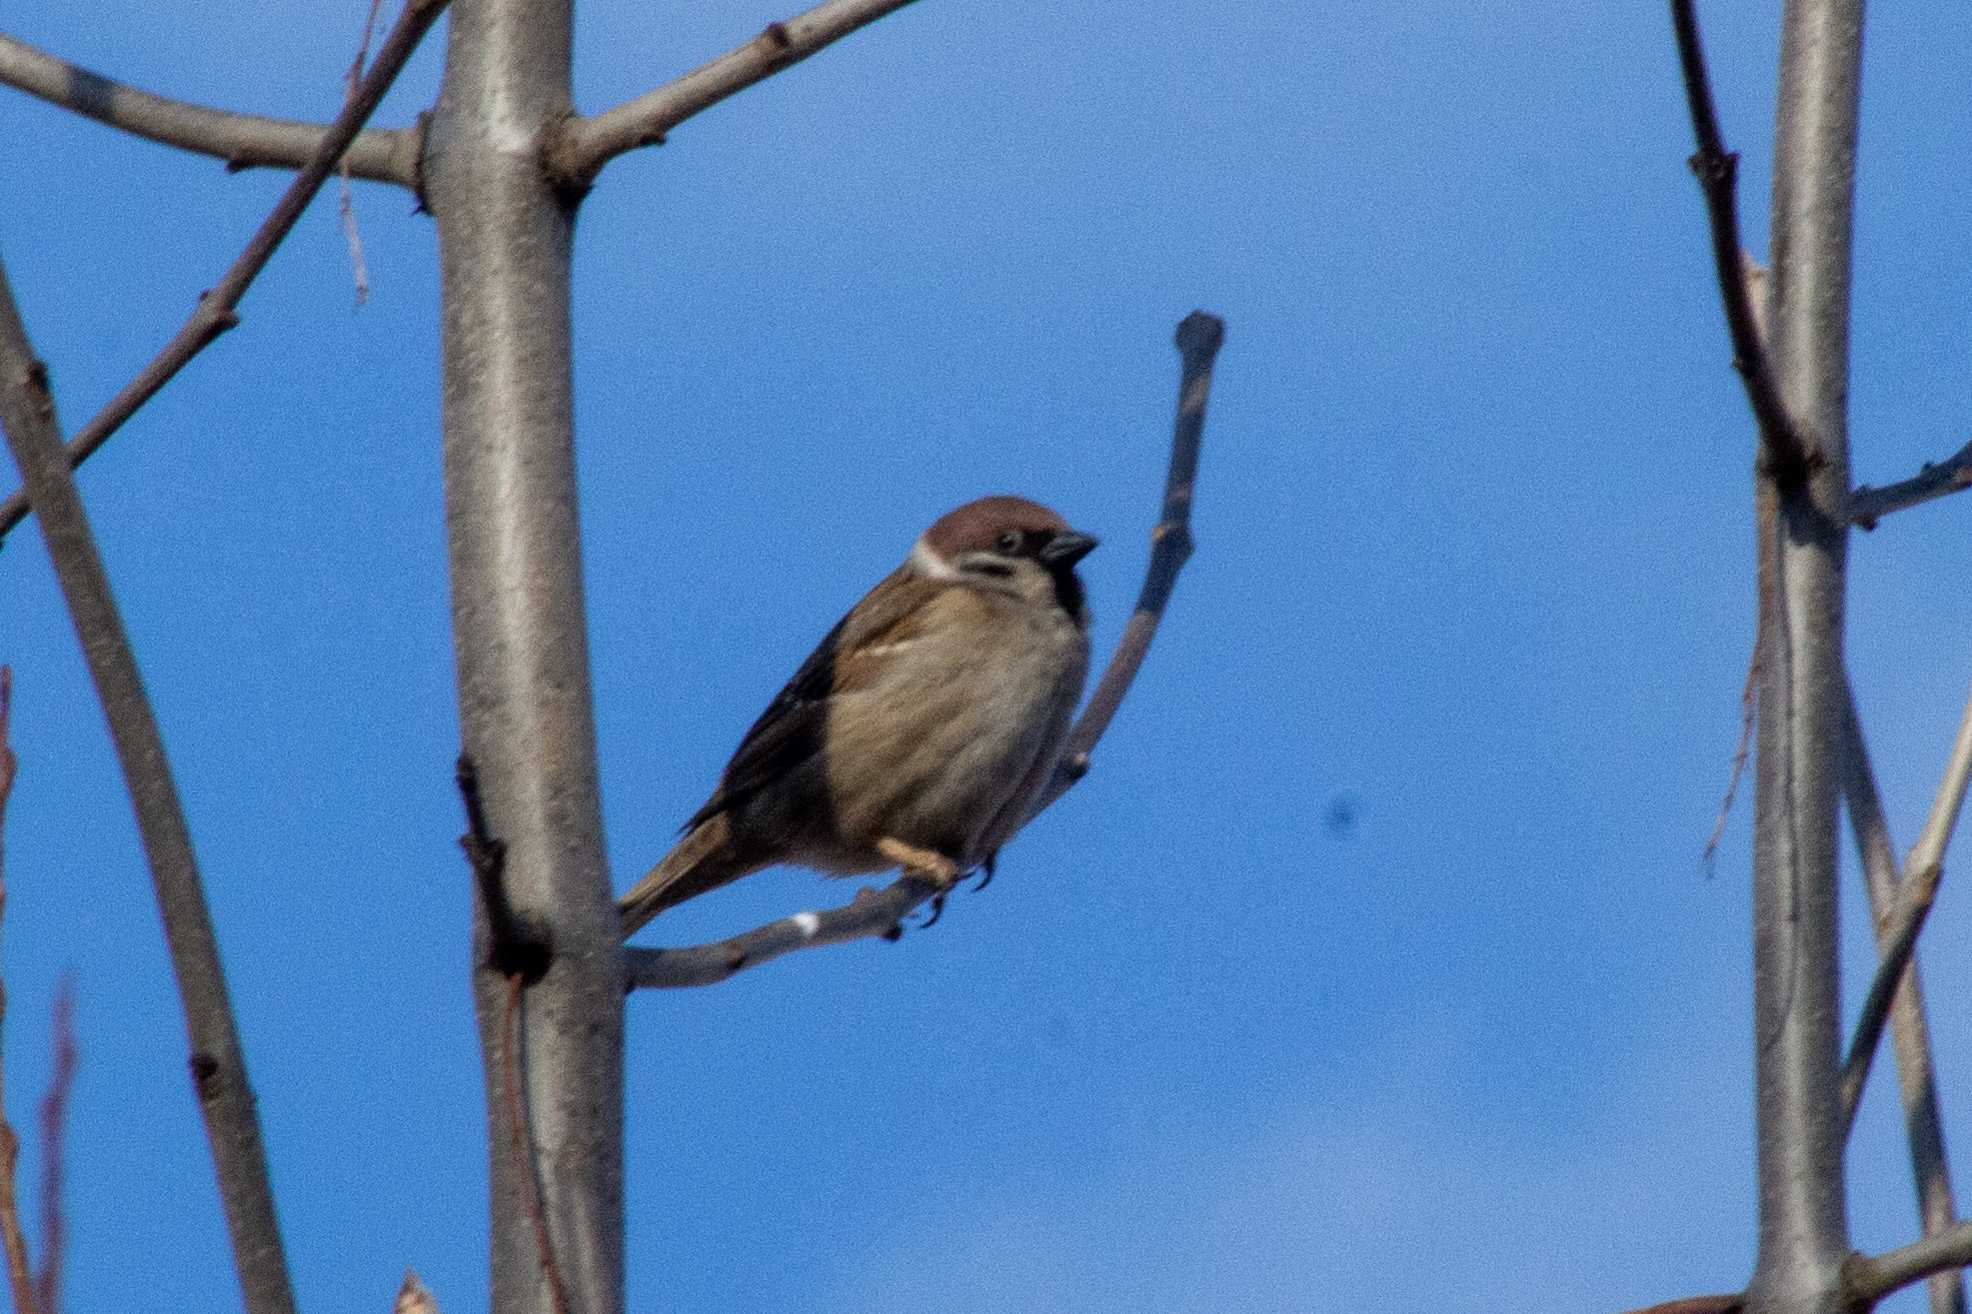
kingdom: Animalia
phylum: Chordata
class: Aves
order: Passeriformes
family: Passeridae
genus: Passer
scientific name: Passer montanus
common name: Eurasian tree sparrow
